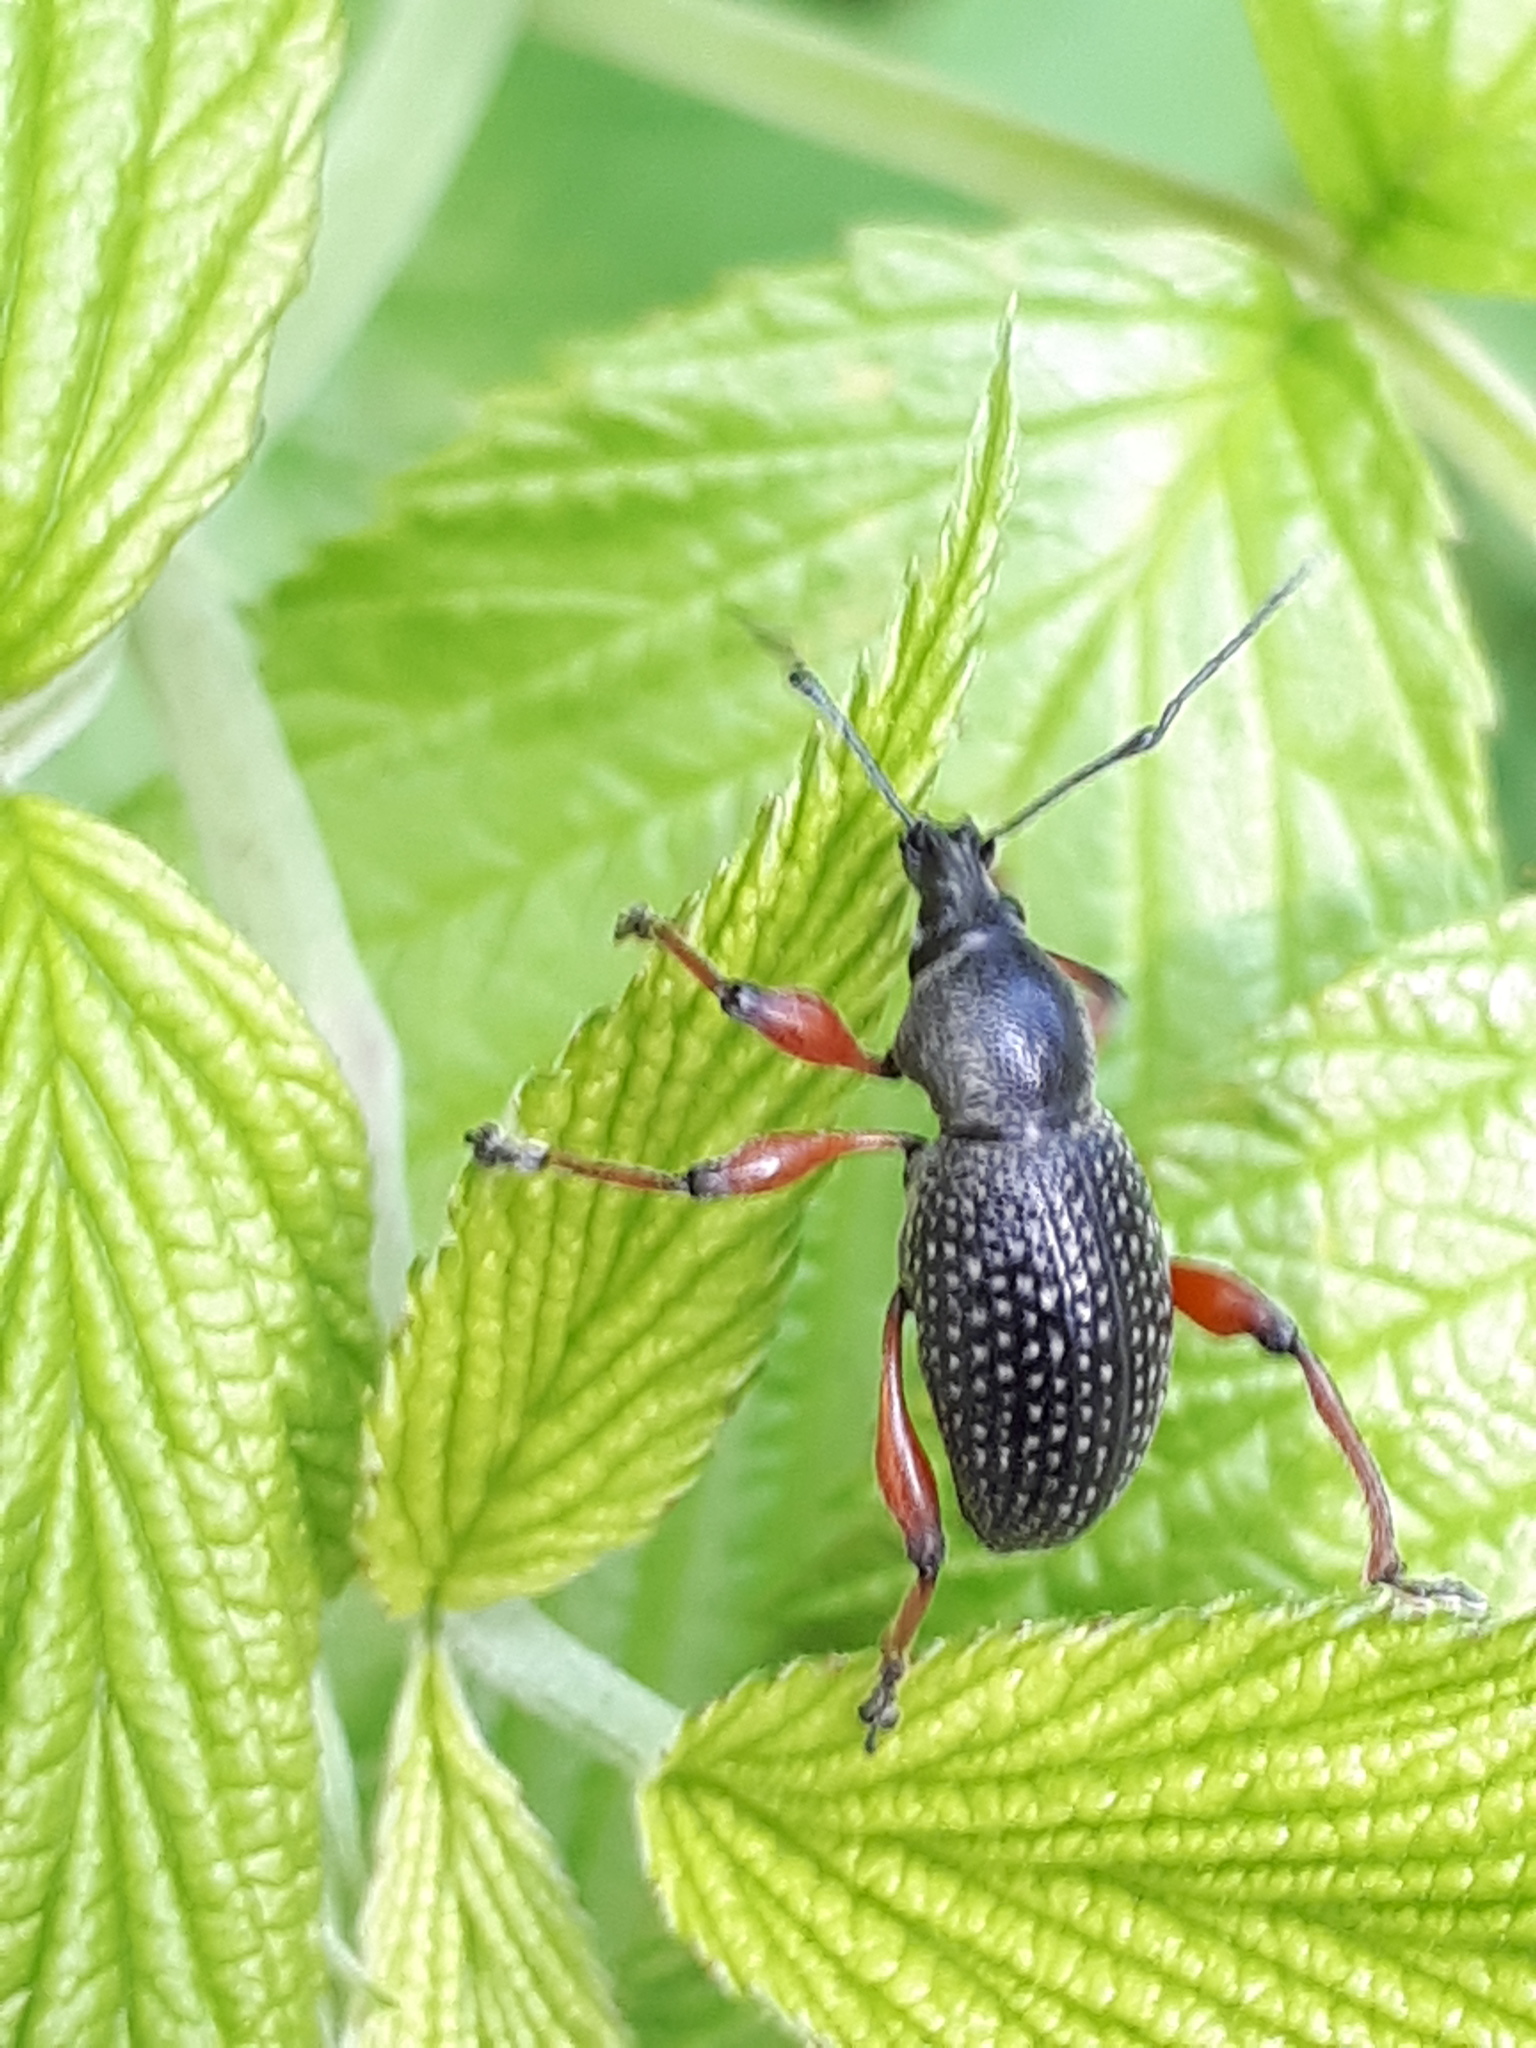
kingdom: Animalia
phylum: Arthropoda
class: Insecta
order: Coleoptera
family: Curculionidae
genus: Otiorhynchus
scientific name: Otiorhynchus coecus
